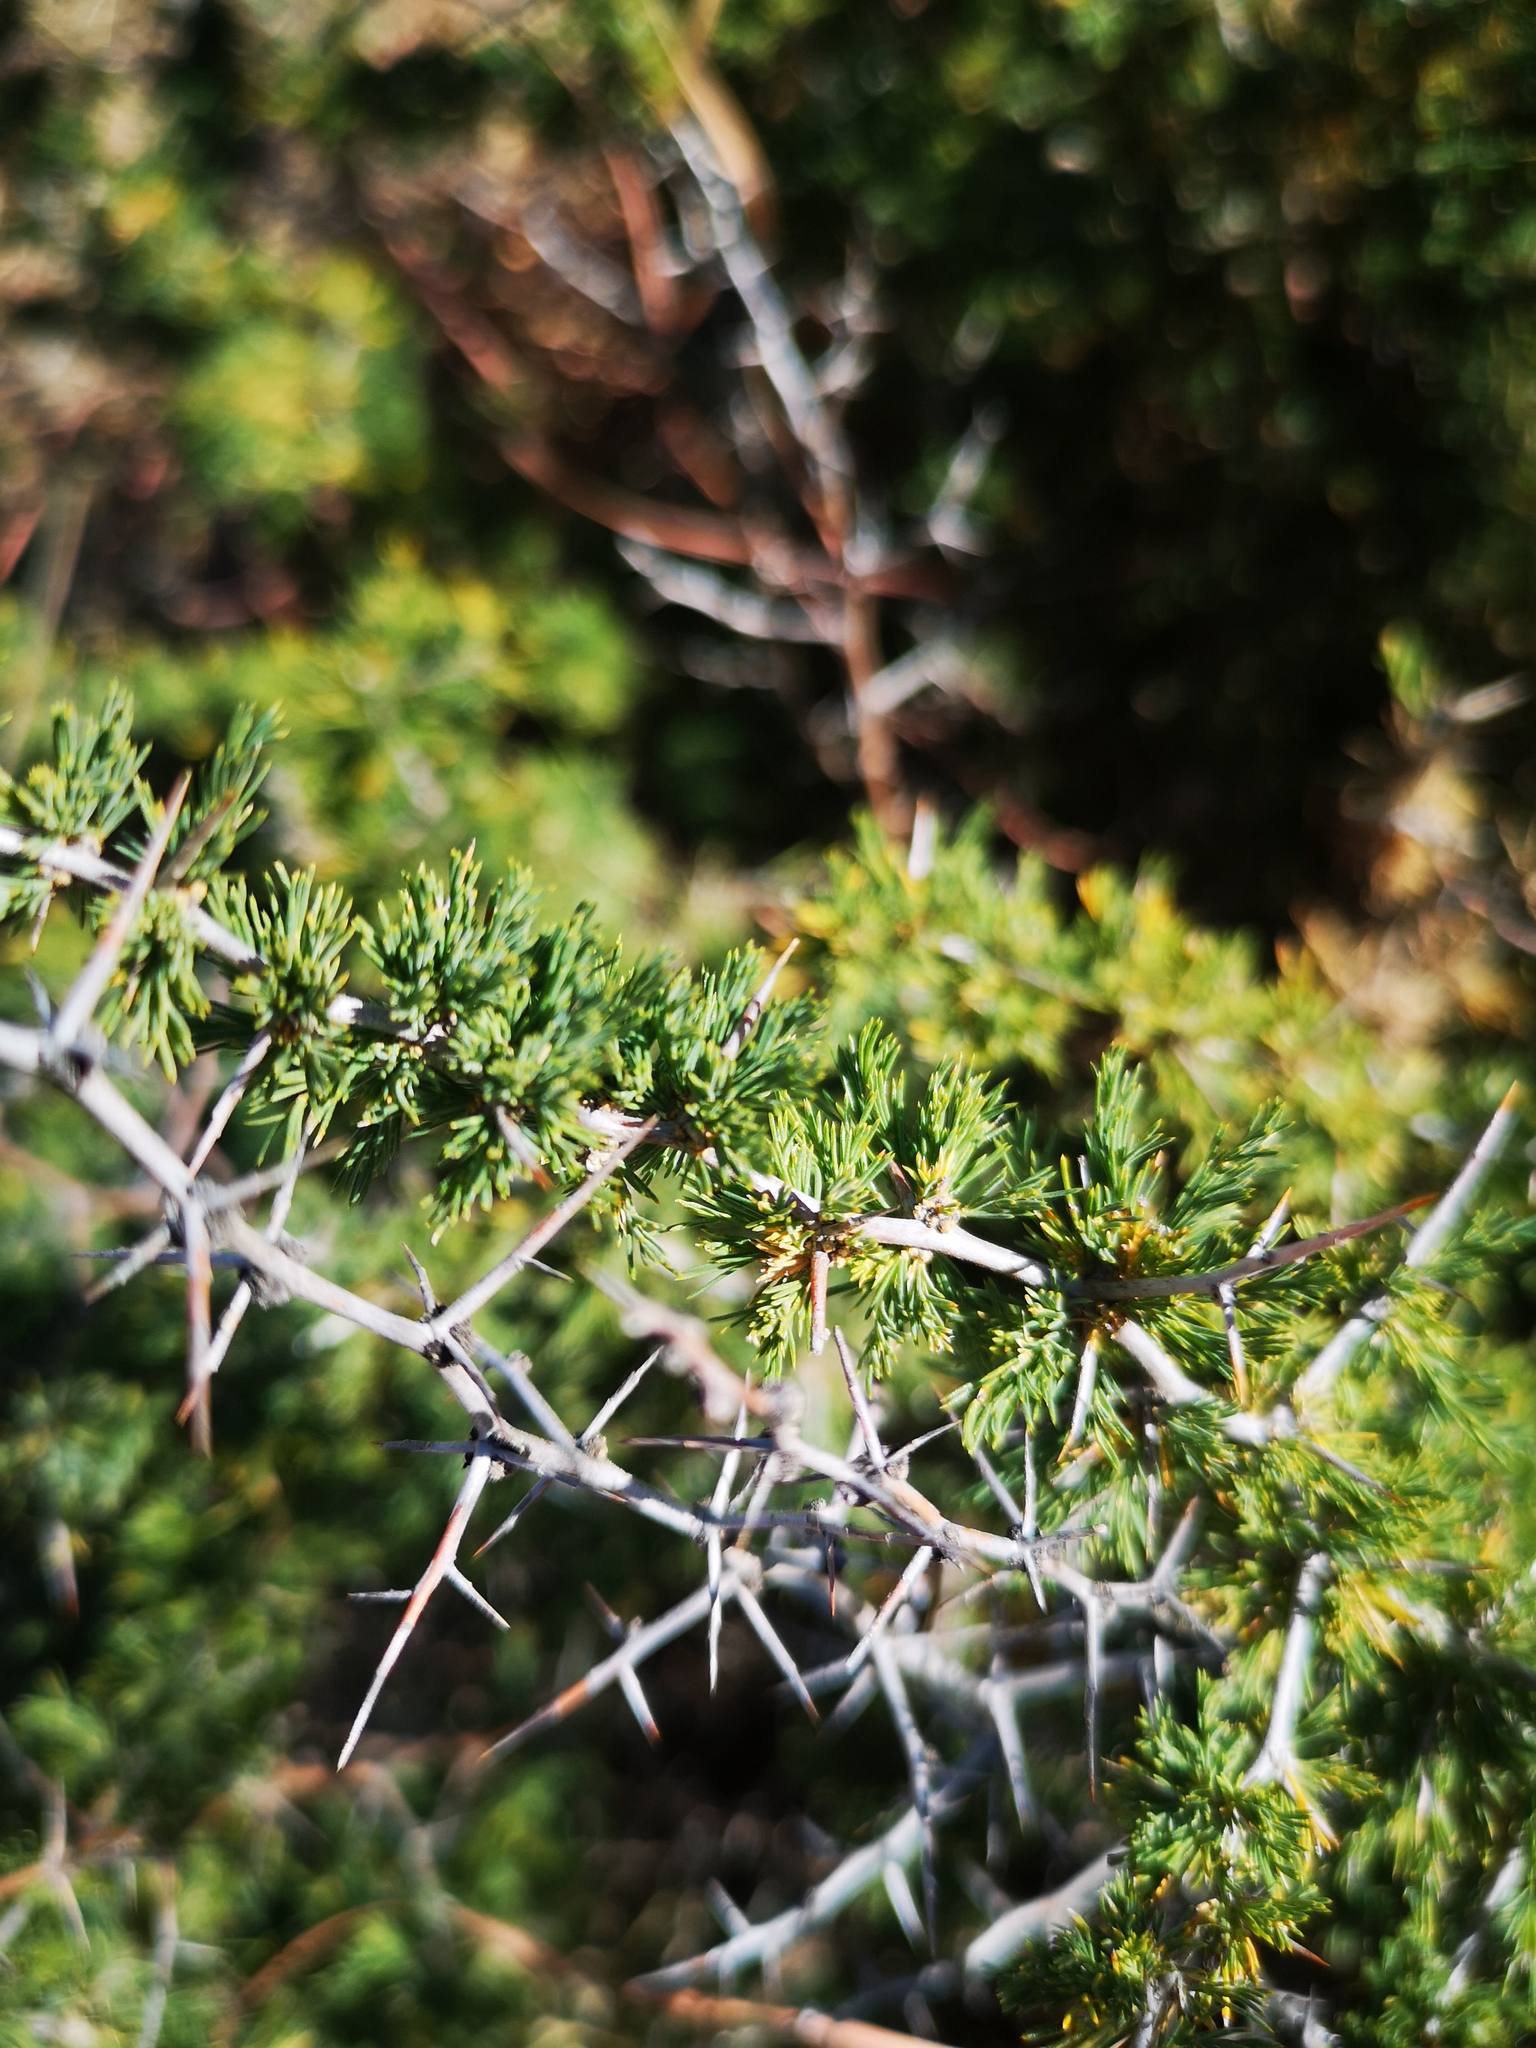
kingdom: Plantae
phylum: Tracheophyta
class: Liliopsida
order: Asparagales
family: Asparagaceae
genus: Asparagus
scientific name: Asparagus suaveolens
